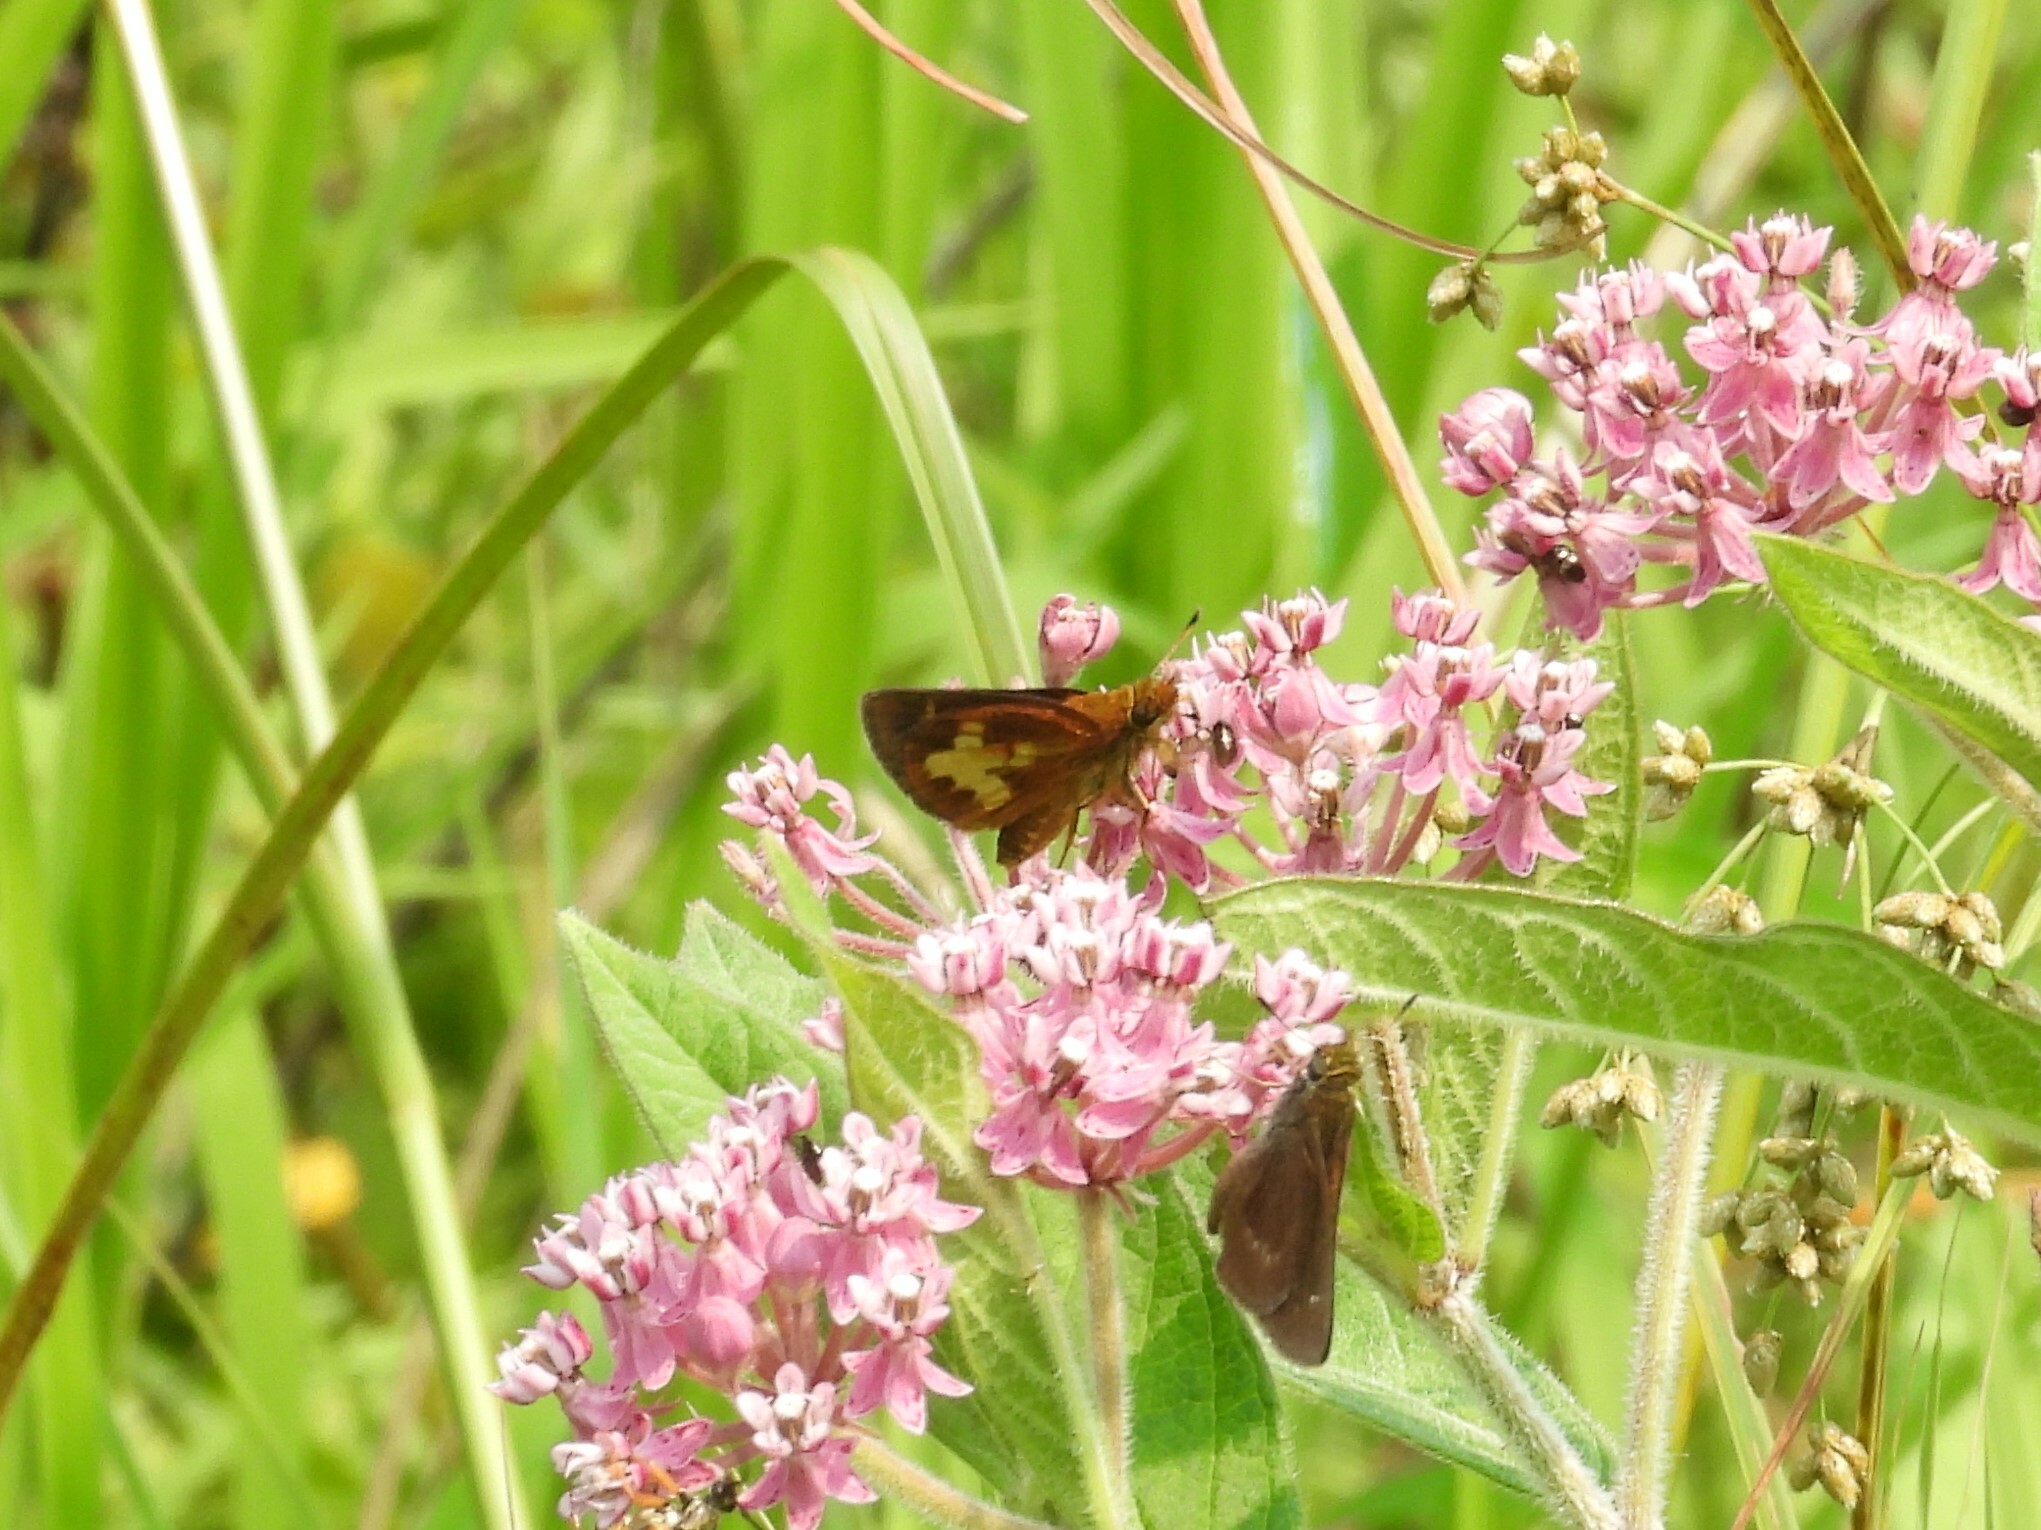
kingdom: Animalia
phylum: Arthropoda
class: Insecta
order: Lepidoptera
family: Hesperiidae
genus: Poanes
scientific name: Poanes massasoit
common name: Mulberrywing
